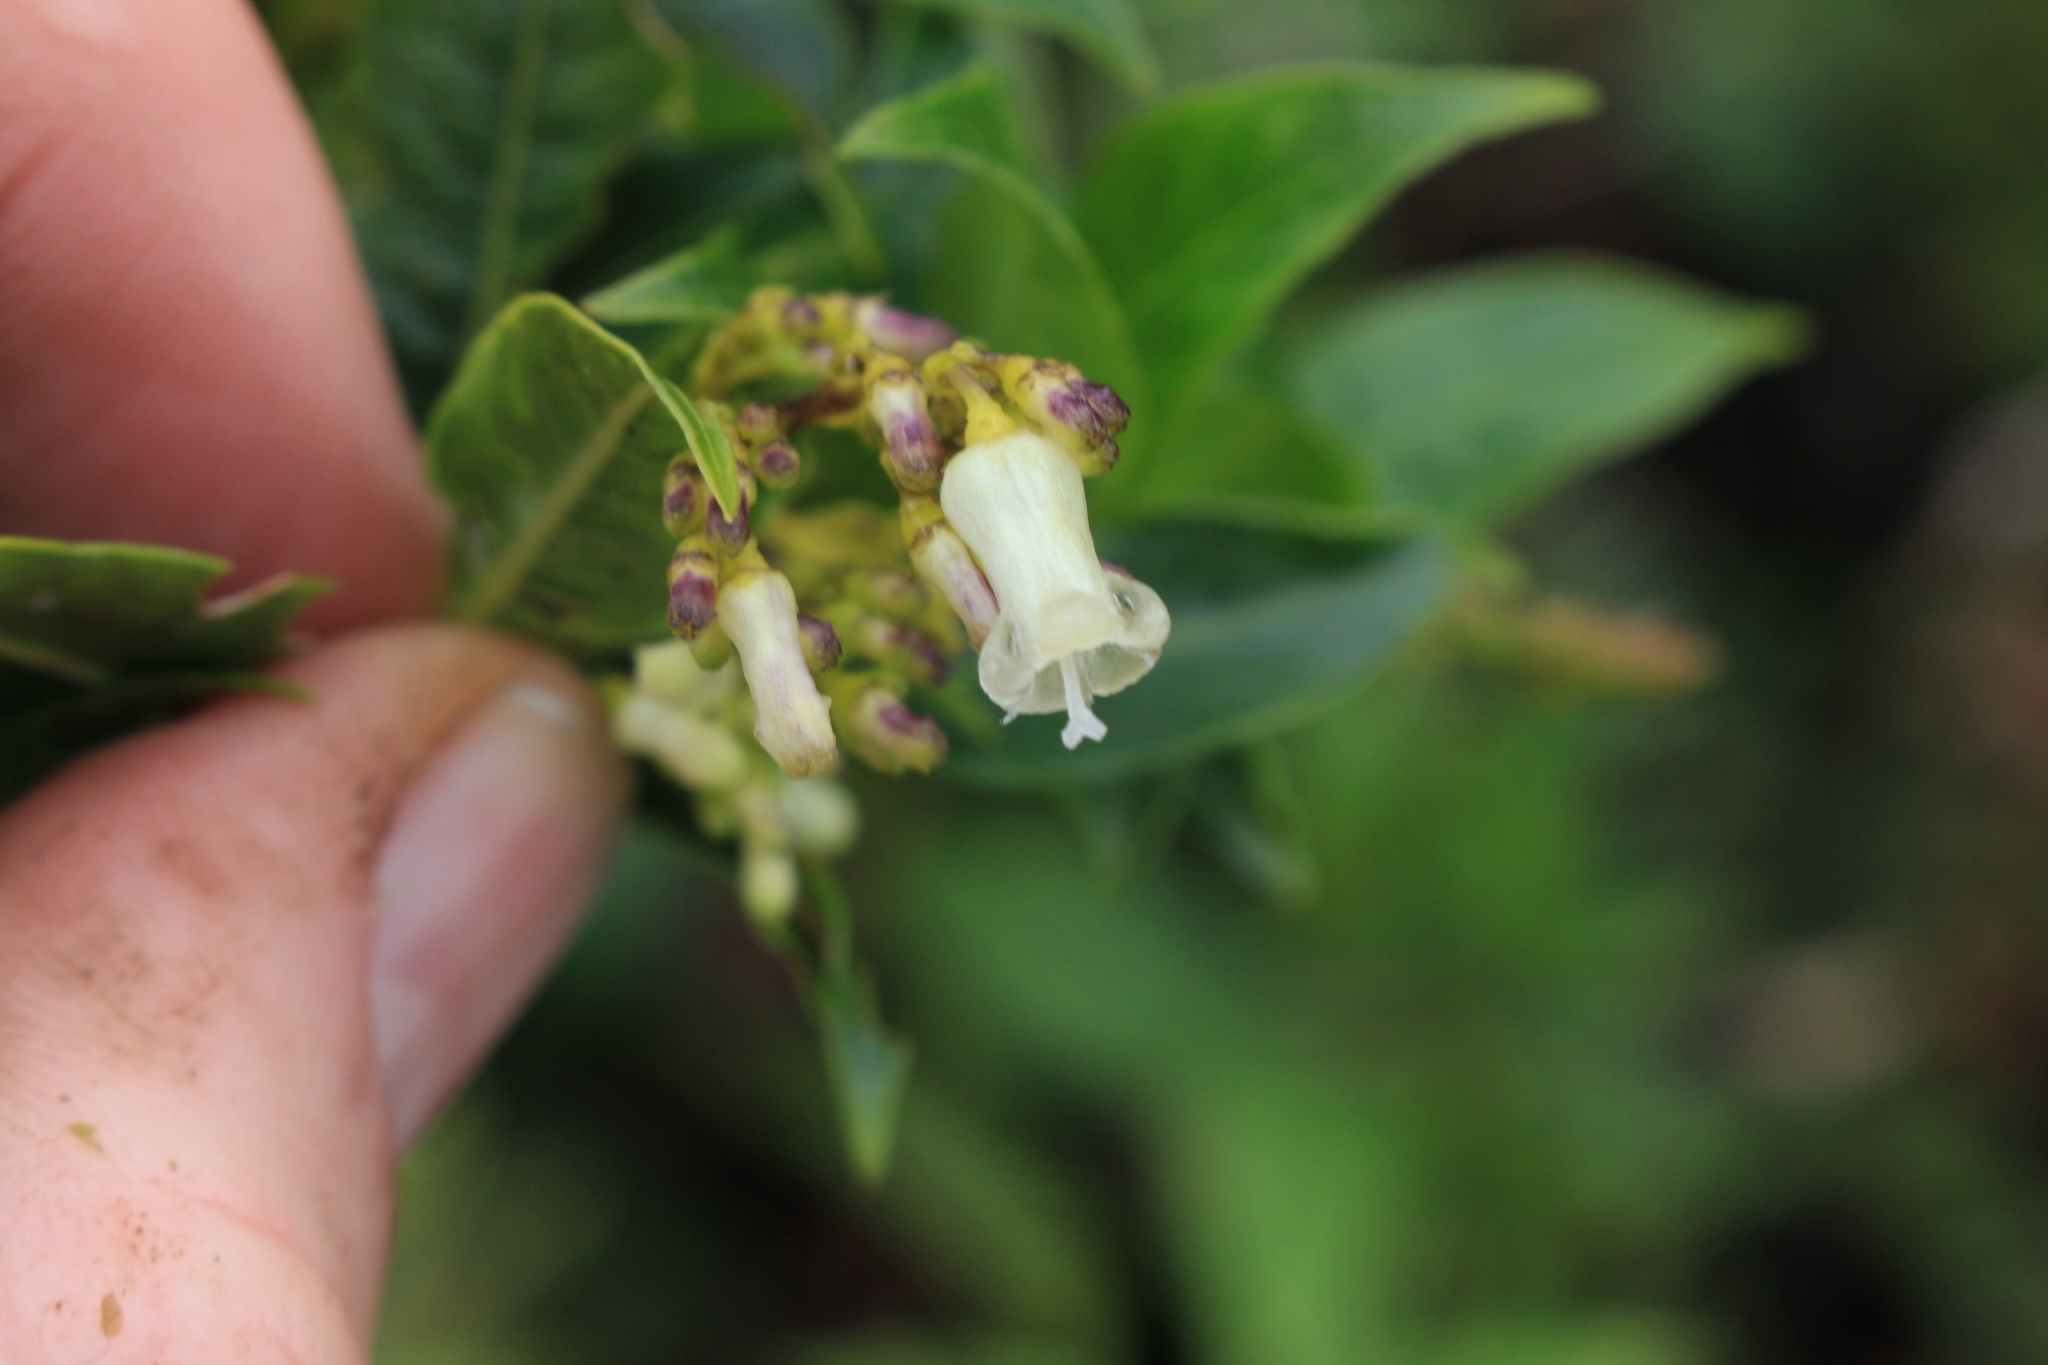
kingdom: Plantae
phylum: Tracheophyta
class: Magnoliopsida
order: Gentianales
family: Rubiaceae
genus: Palicourea
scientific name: Palicourea adusta
